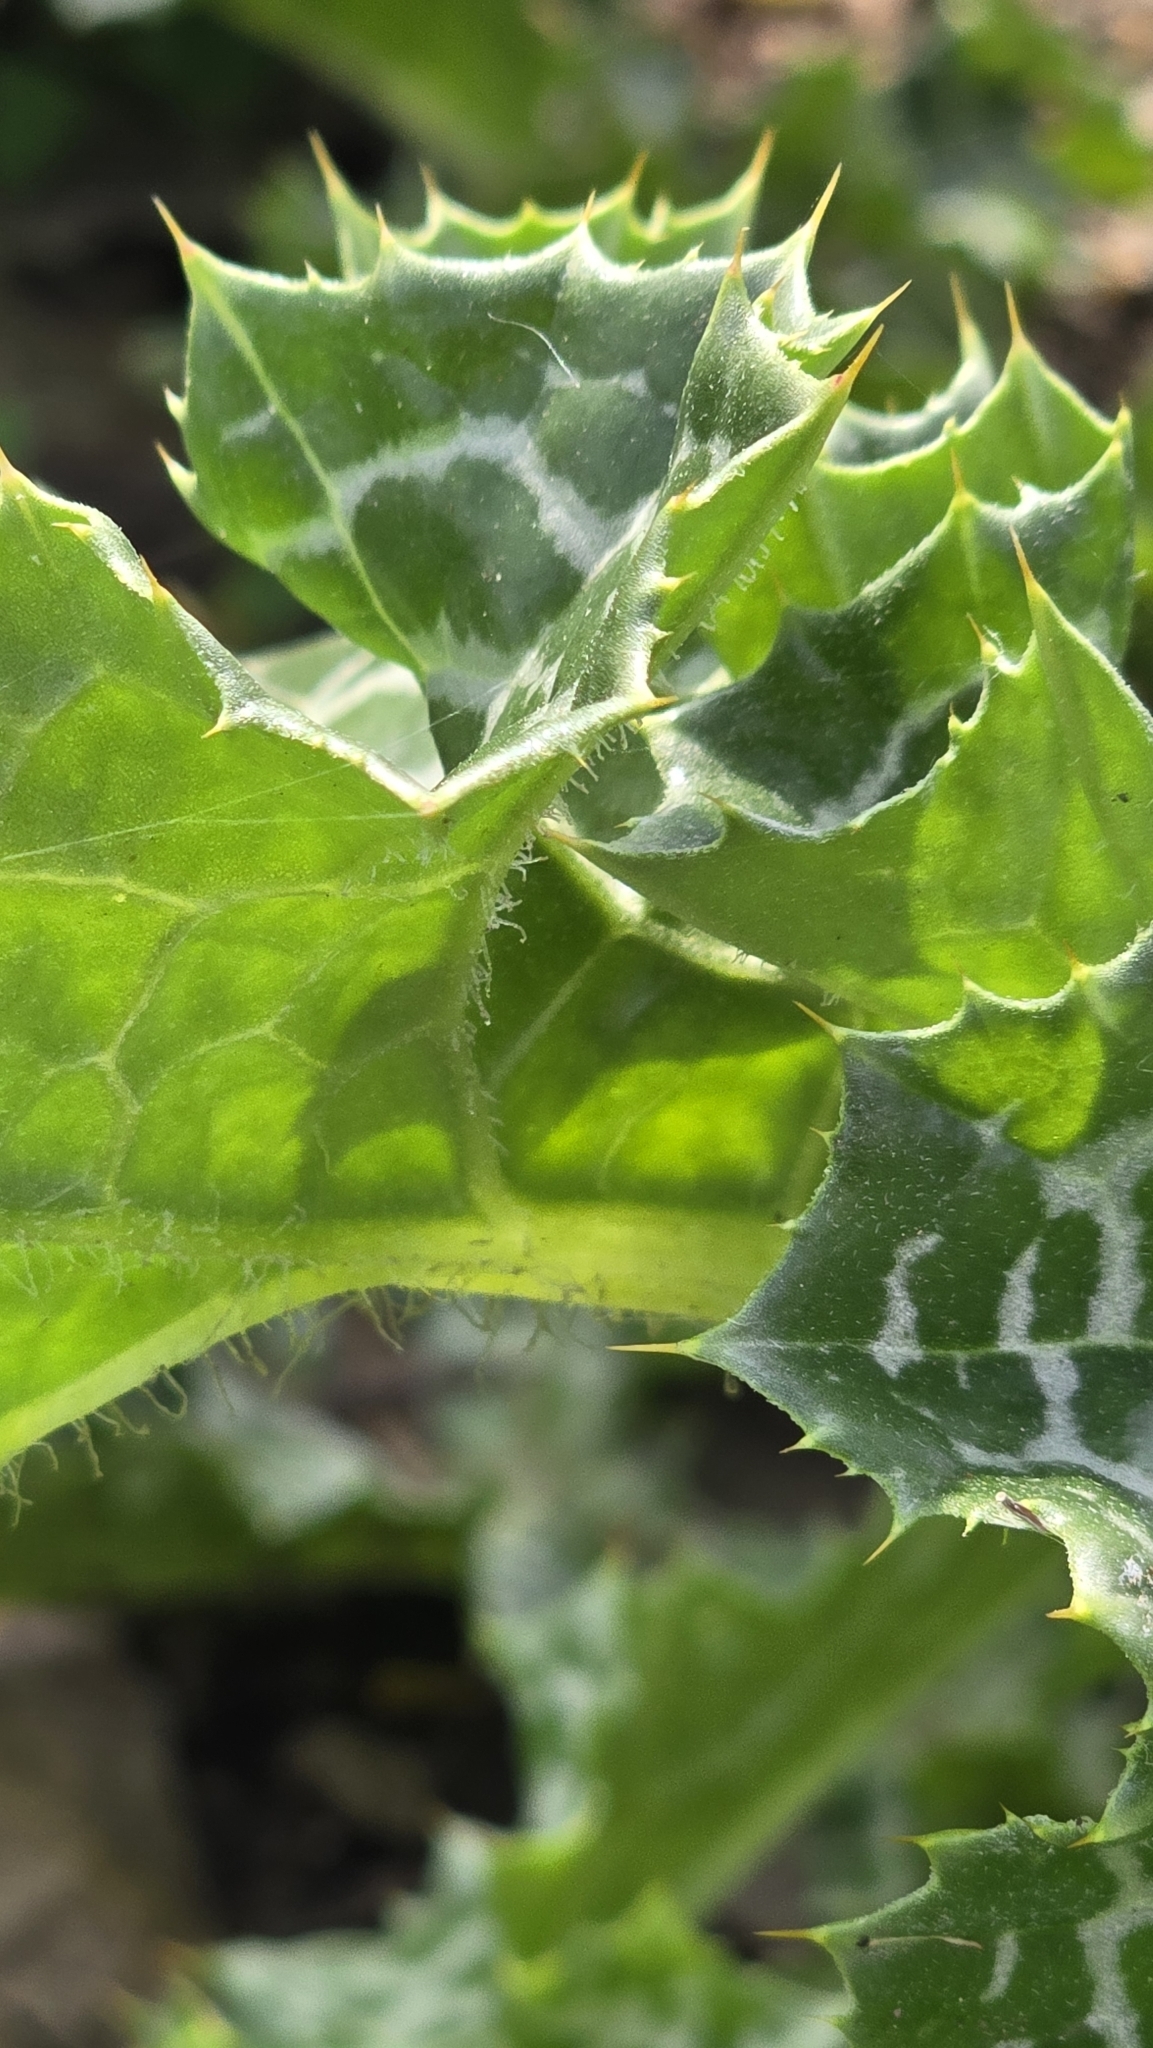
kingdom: Plantae
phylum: Tracheophyta
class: Magnoliopsida
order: Asterales
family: Asteraceae
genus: Silybum
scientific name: Silybum marianum
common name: Milk thistle
